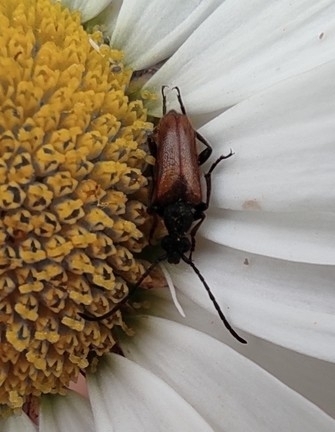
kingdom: Animalia
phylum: Arthropoda
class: Insecta
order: Coleoptera
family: Cerambycidae
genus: Pseudovadonia
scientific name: Pseudovadonia livida
